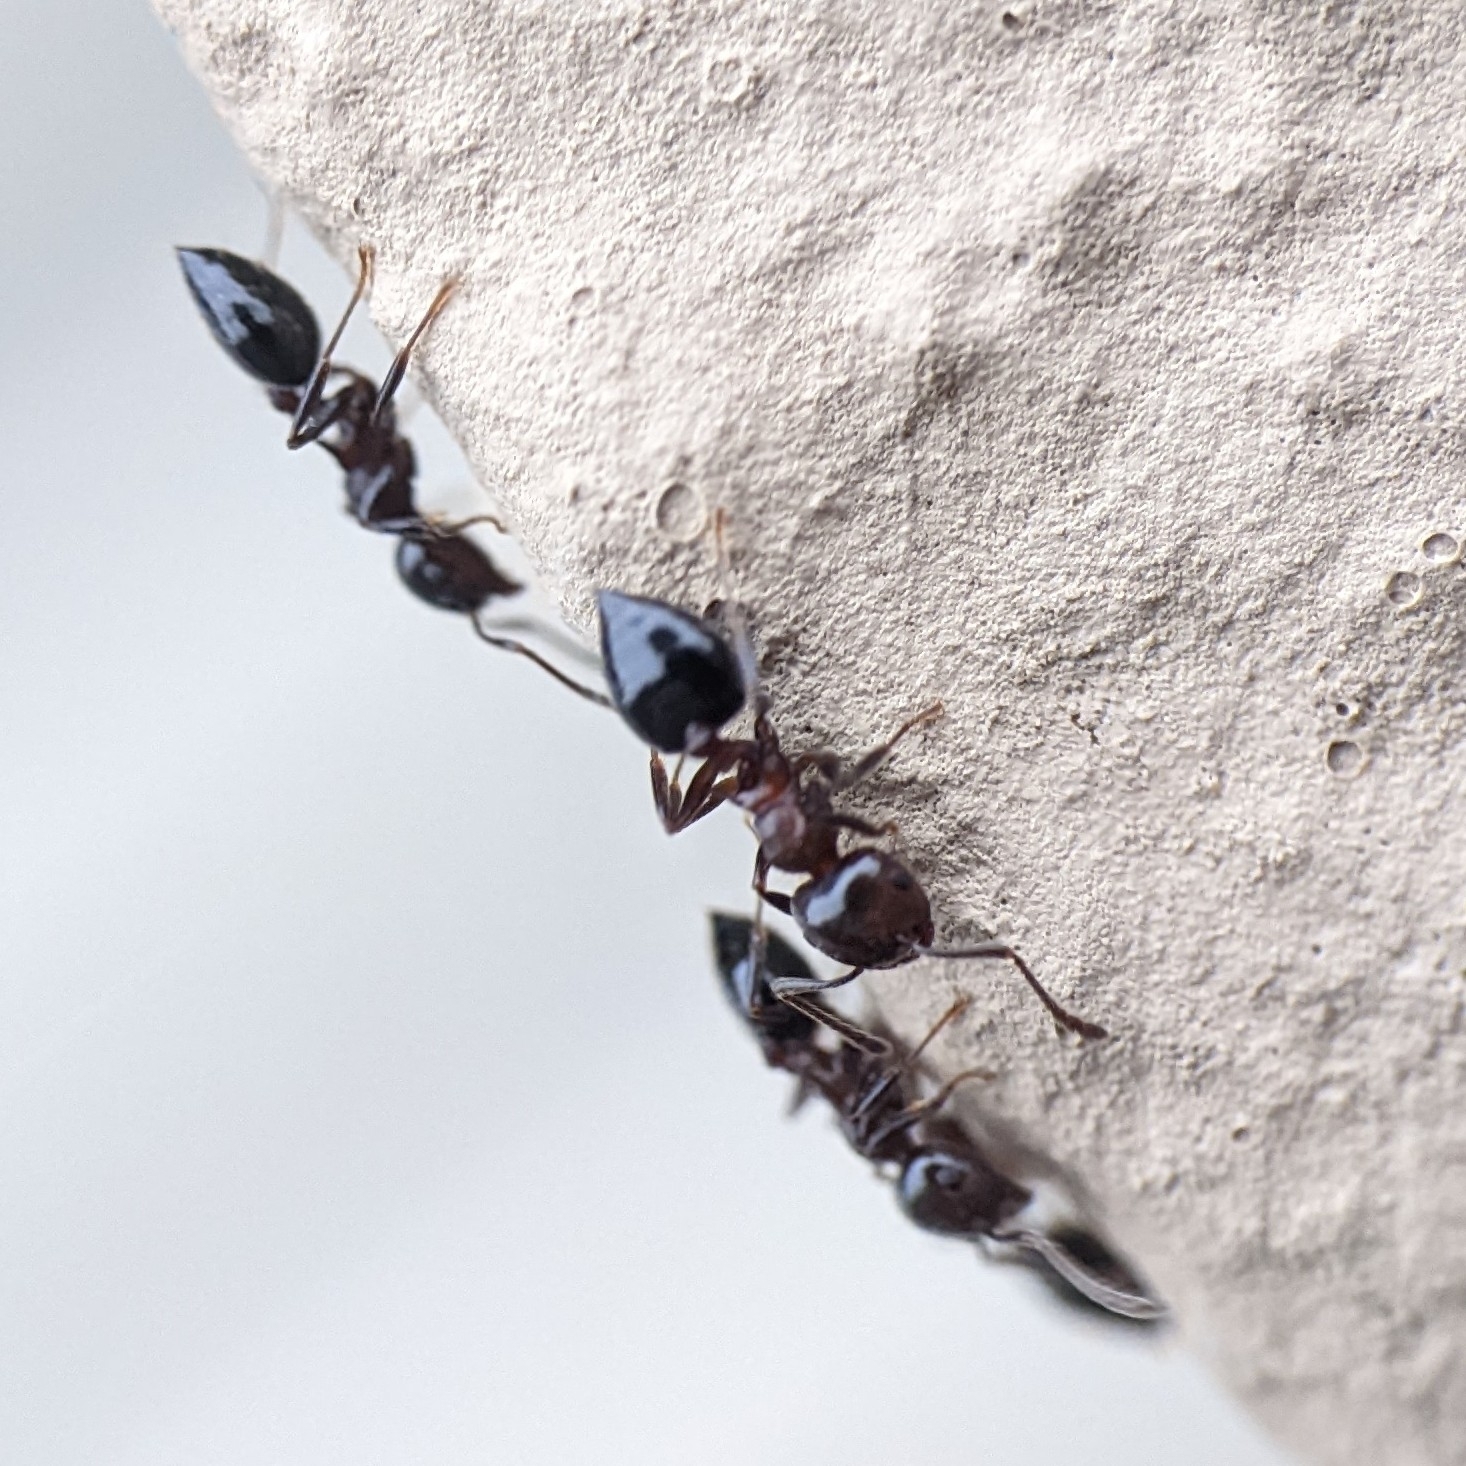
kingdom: Animalia
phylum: Arthropoda
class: Insecta
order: Hymenoptera
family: Formicidae
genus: Crematogaster
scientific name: Crematogaster
